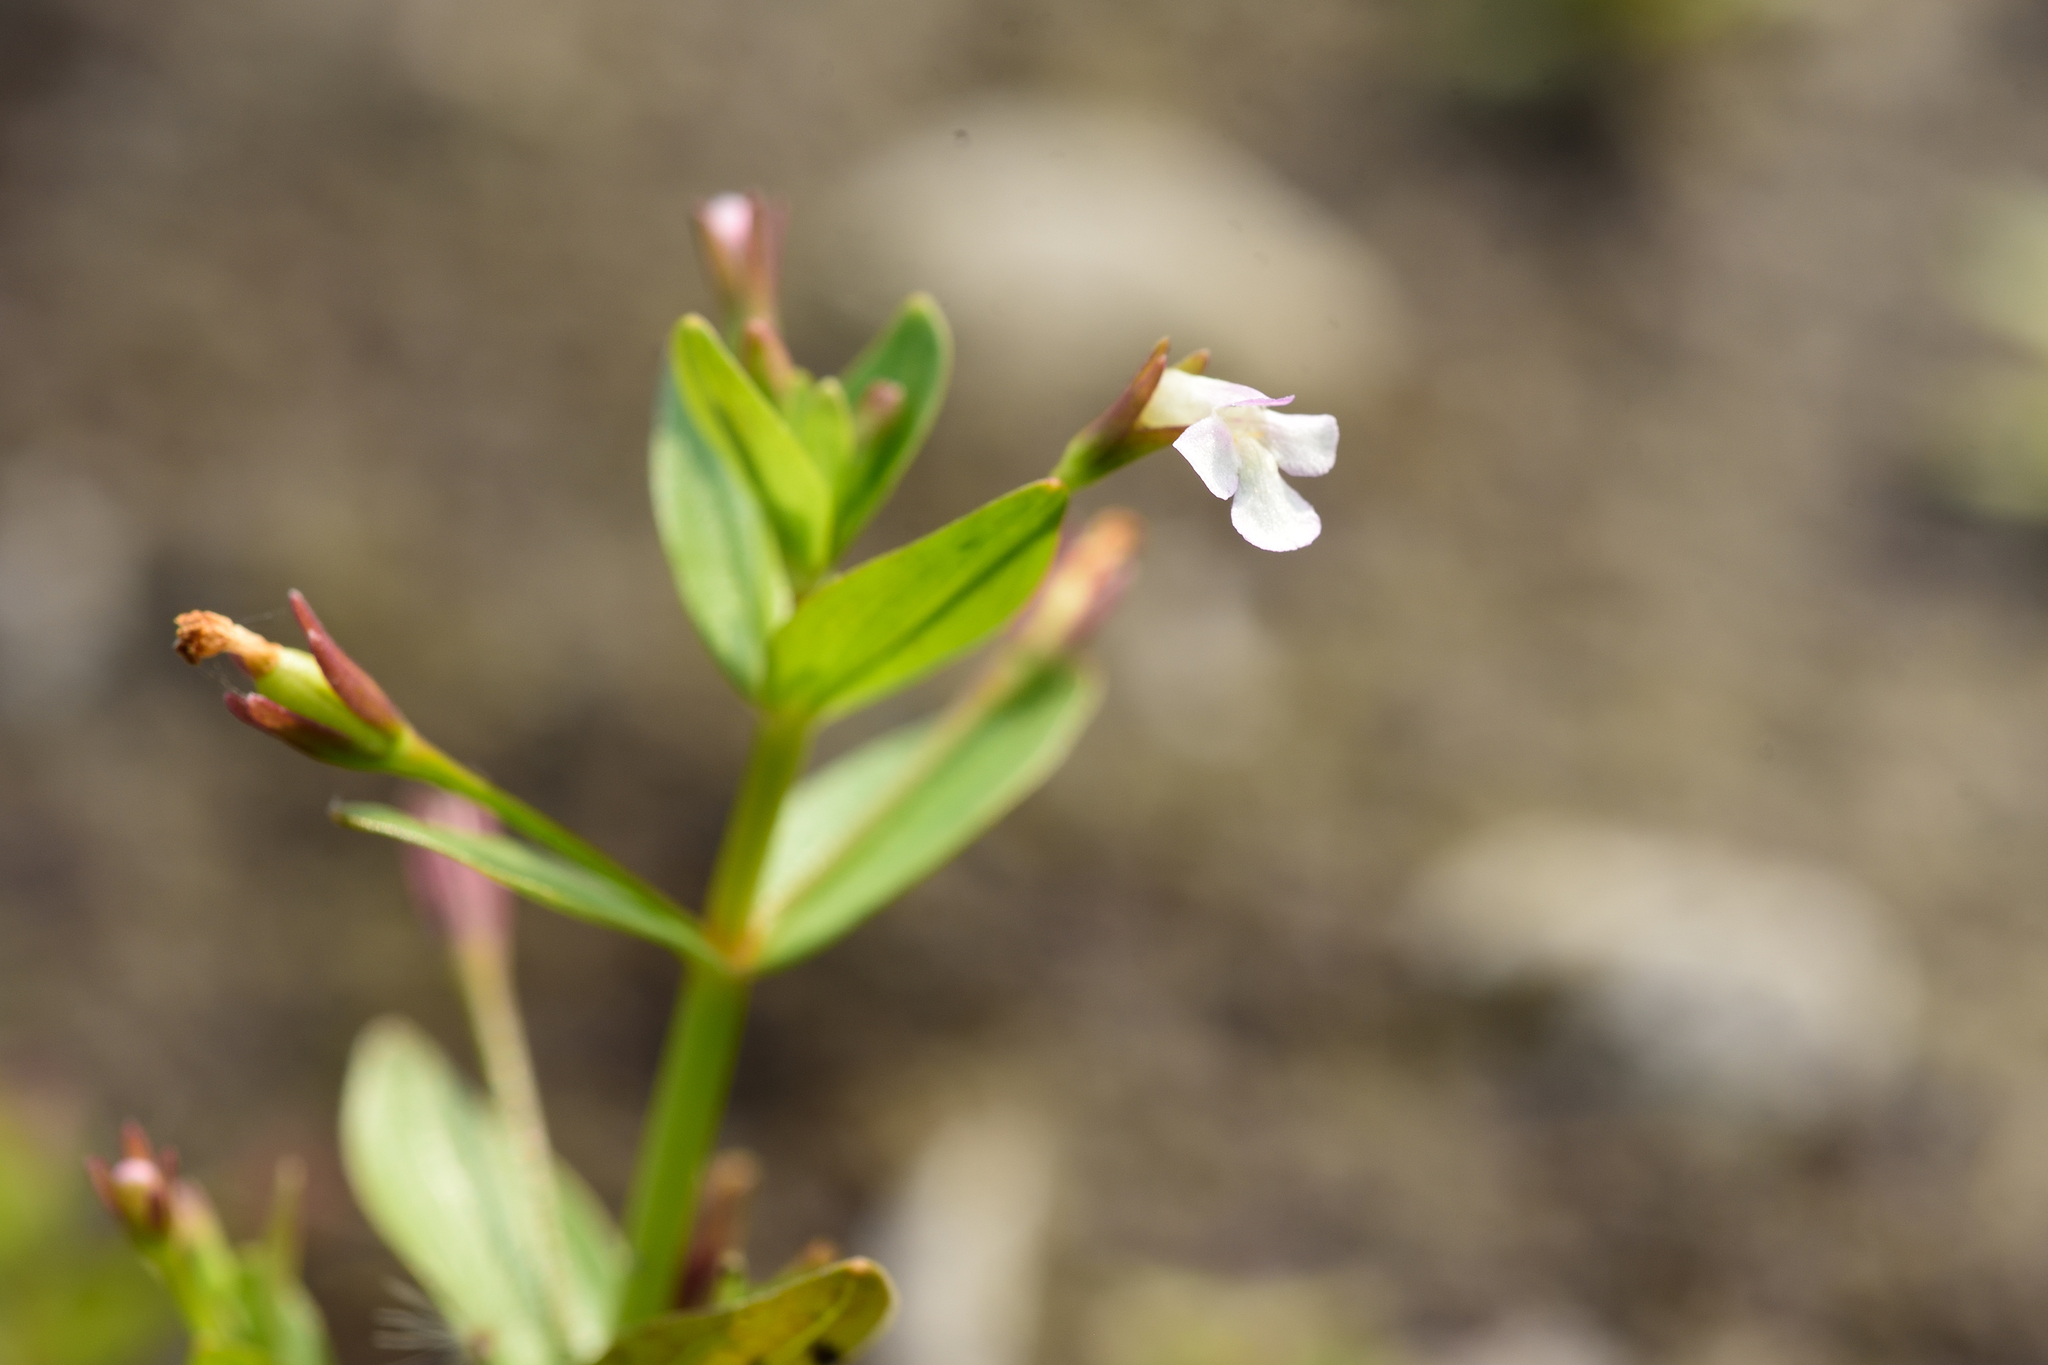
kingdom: Plantae
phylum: Tracheophyta
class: Magnoliopsida
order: Lamiales
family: Linderniaceae
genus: Lindernia
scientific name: Lindernia procumbens
